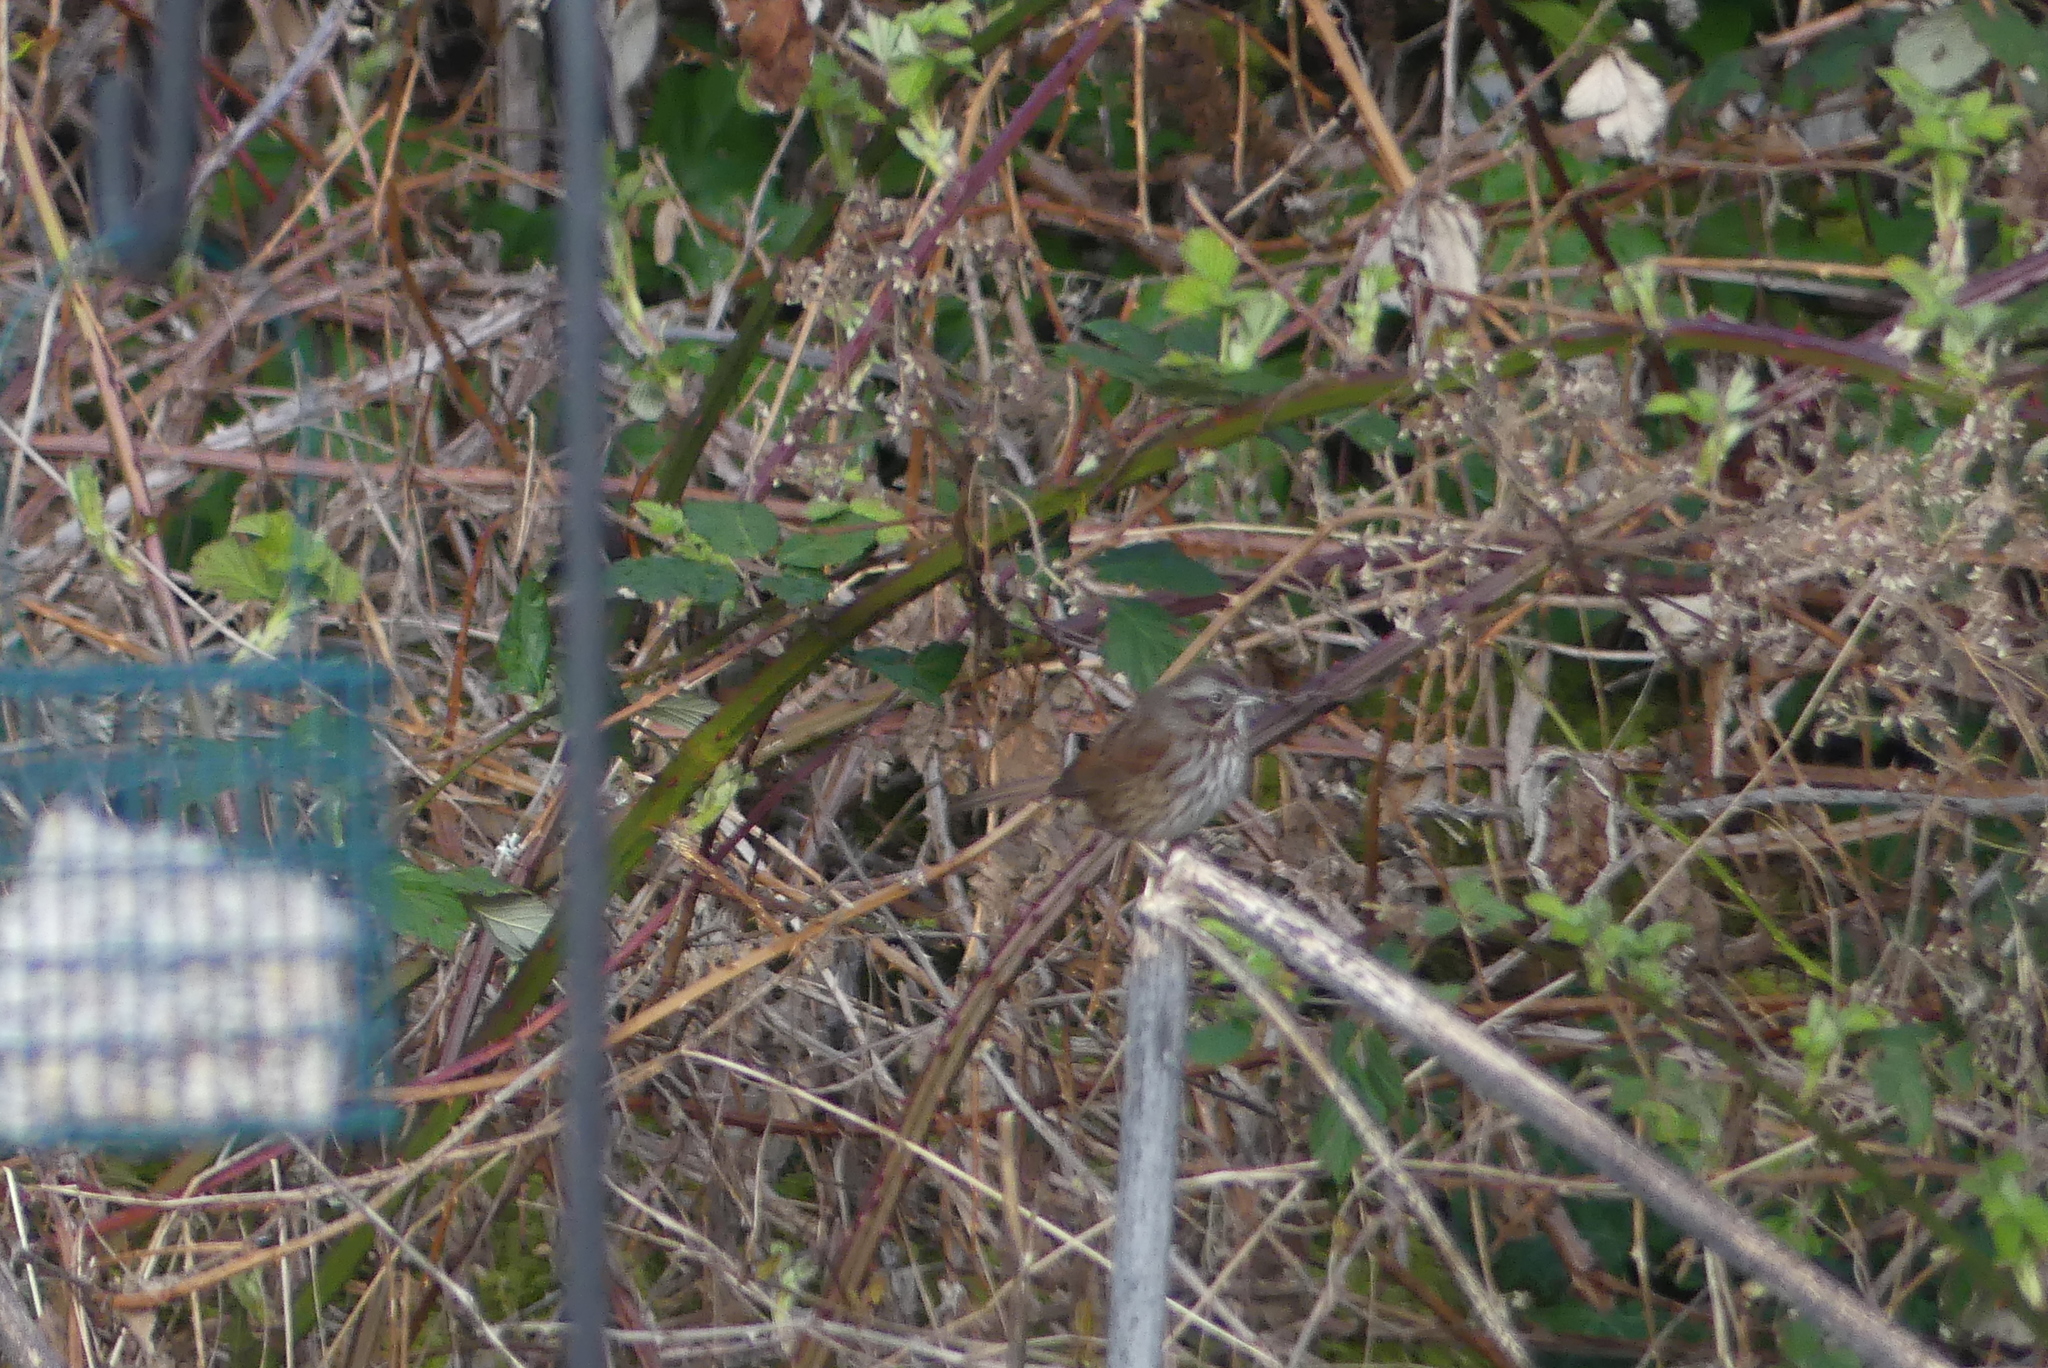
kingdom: Animalia
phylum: Chordata
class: Aves
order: Passeriformes
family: Passerellidae
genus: Melospiza
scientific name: Melospiza melodia
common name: Song sparrow
